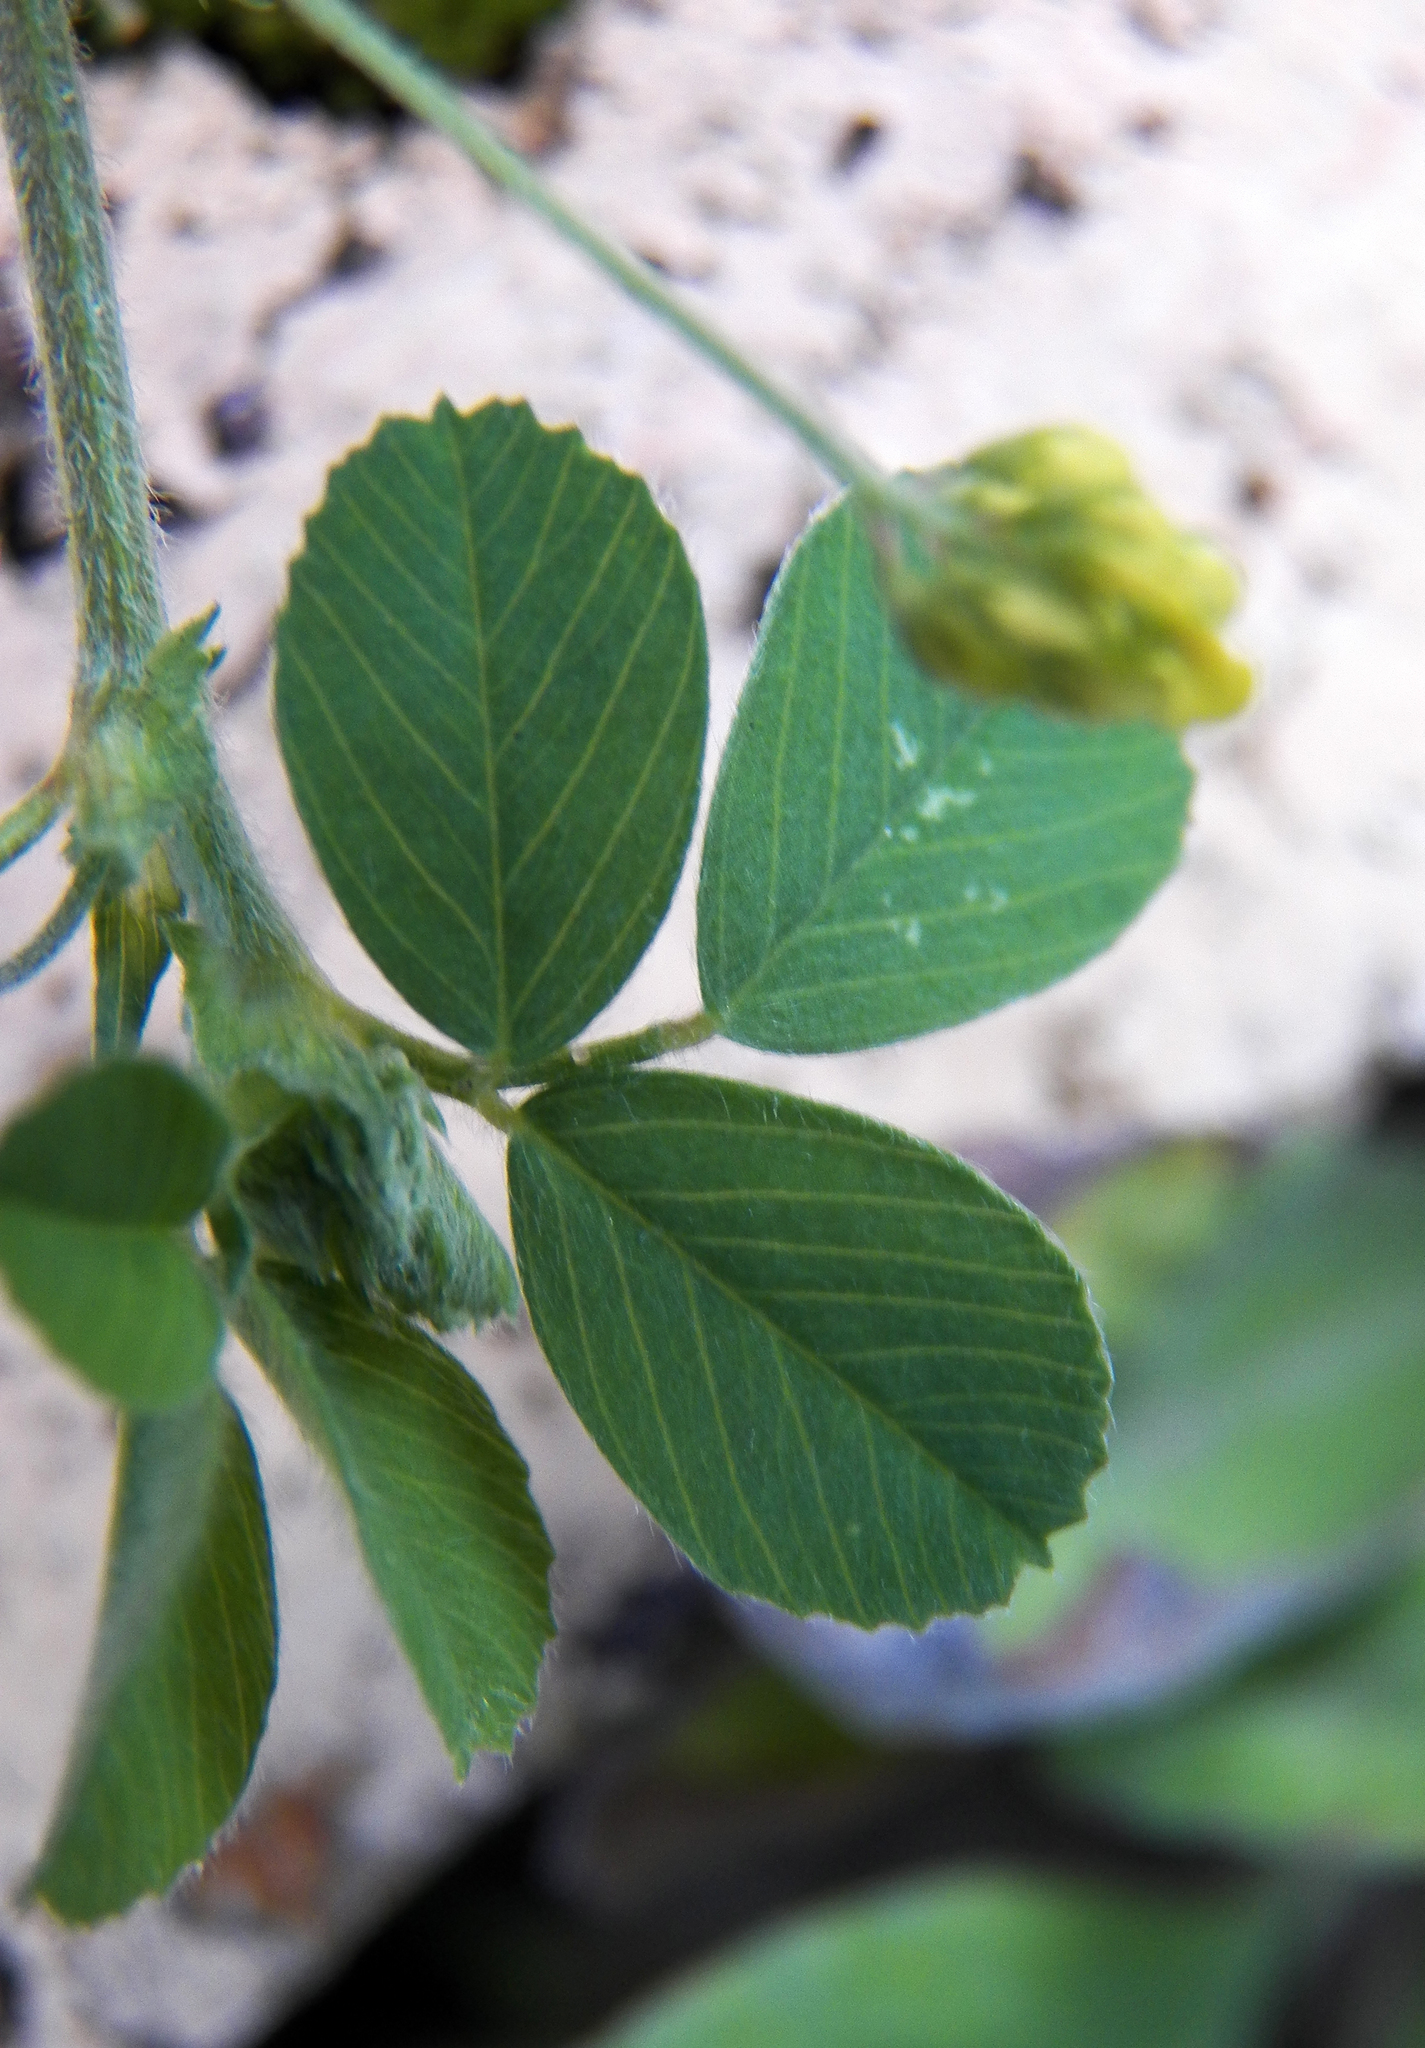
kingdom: Plantae
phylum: Tracheophyta
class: Magnoliopsida
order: Fabales
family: Fabaceae
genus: Medicago
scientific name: Medicago lupulina
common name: Black medick
